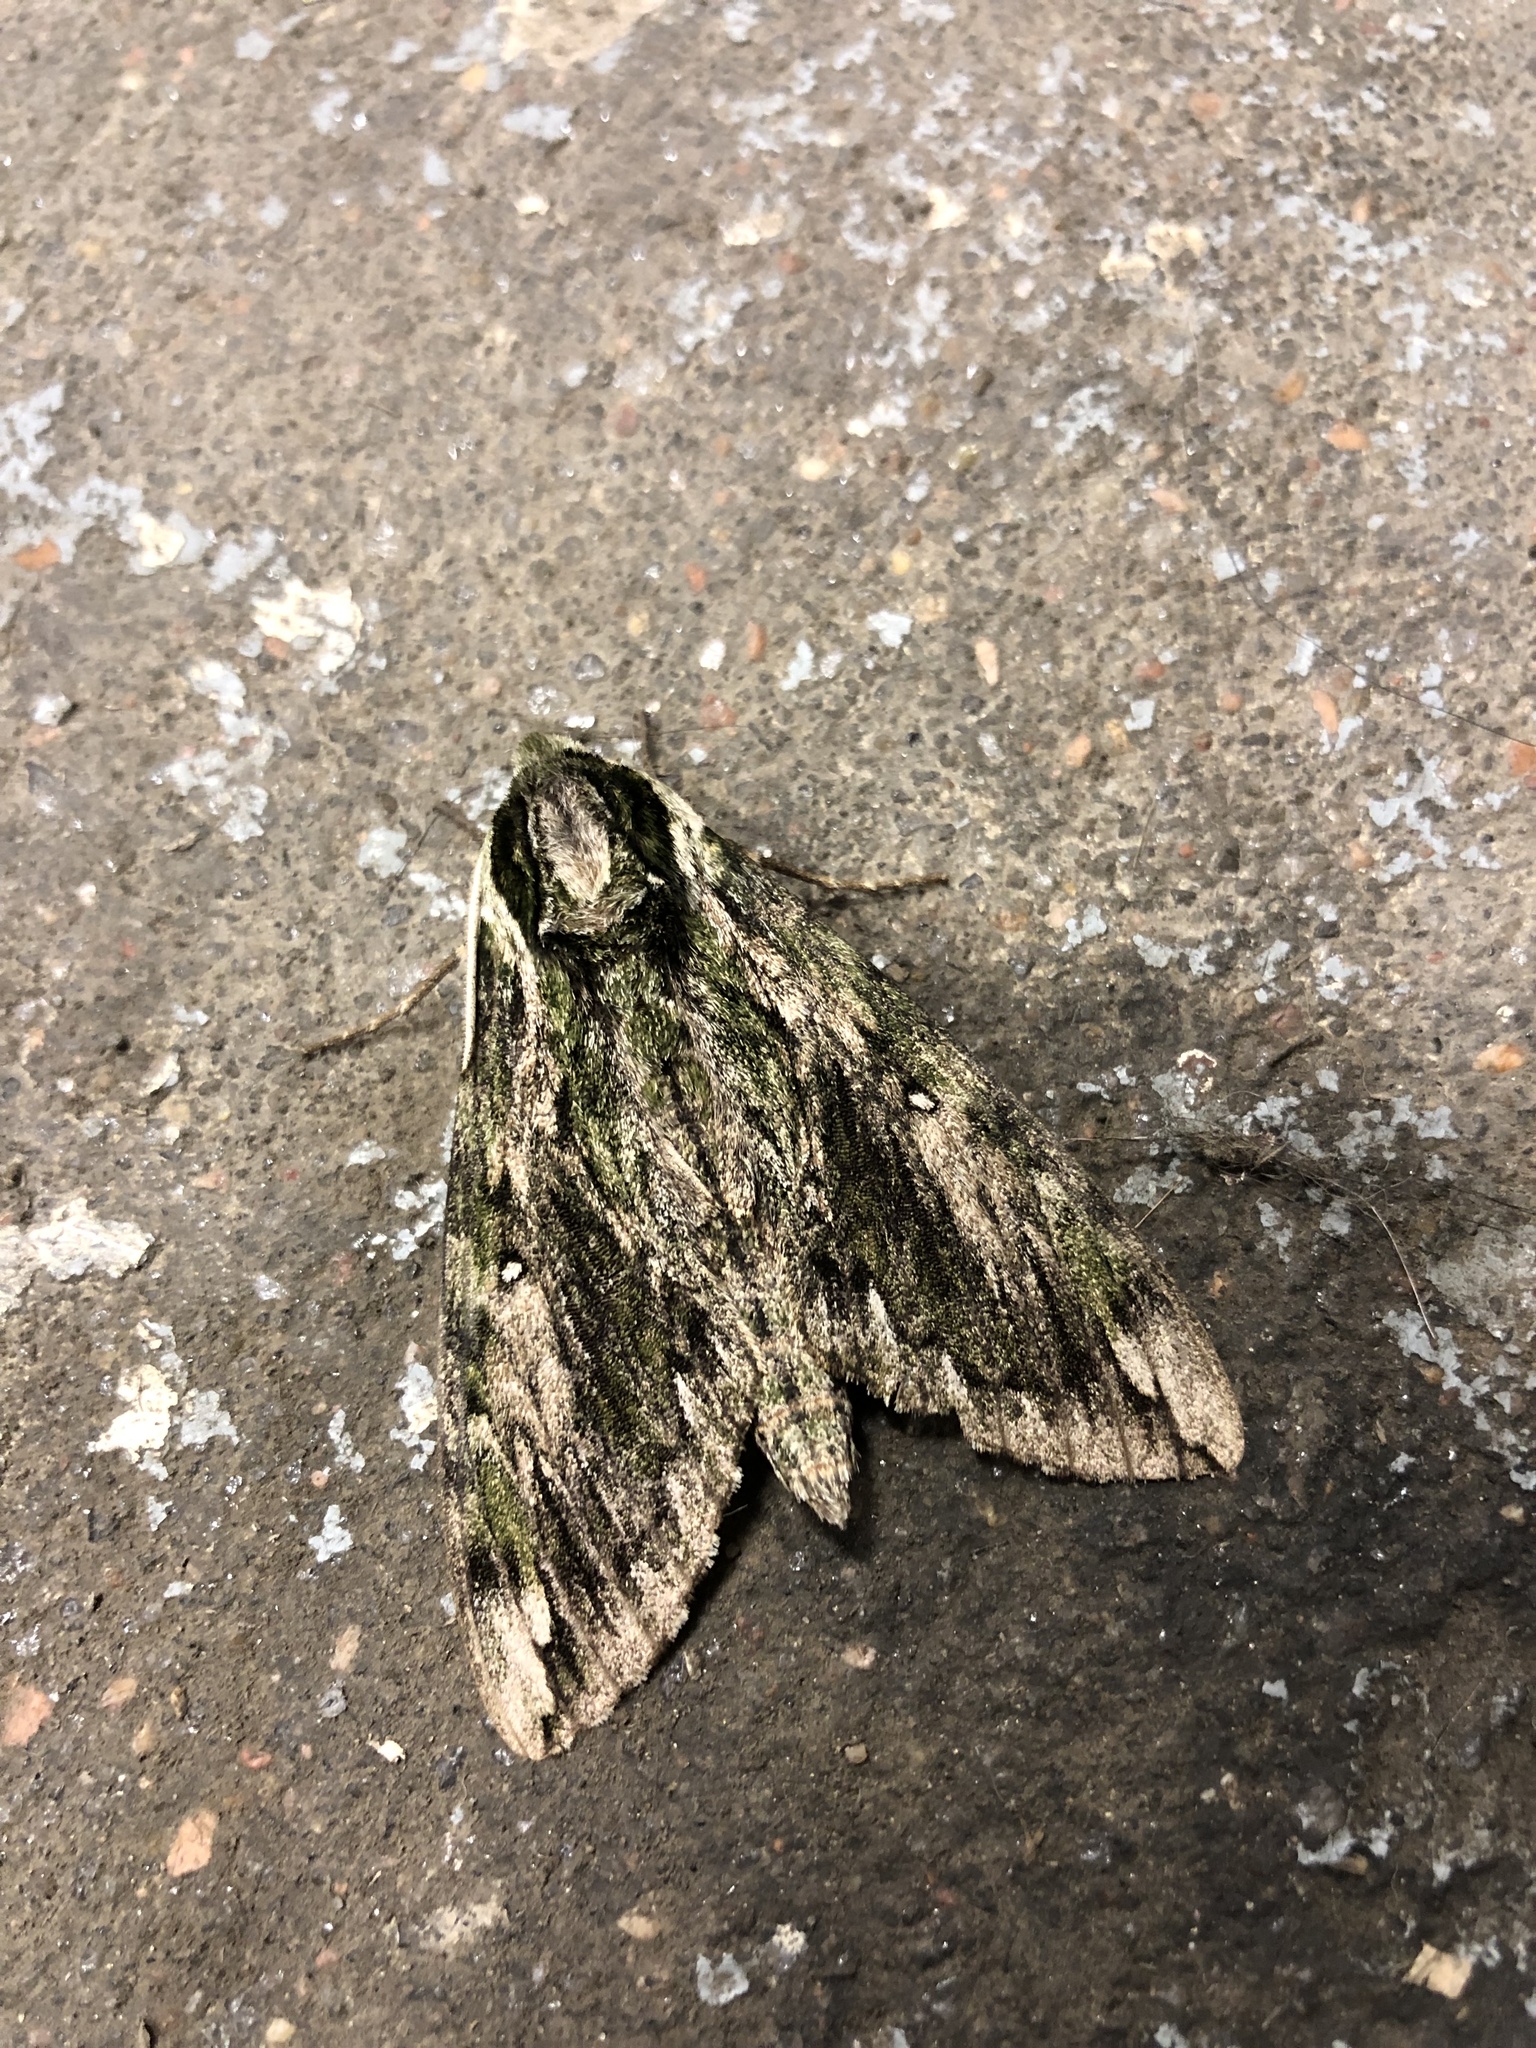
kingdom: Animalia
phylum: Arthropoda
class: Insecta
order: Lepidoptera
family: Sphingidae
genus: Ceratomia
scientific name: Ceratomia hageni
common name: Hagen's sphinx
